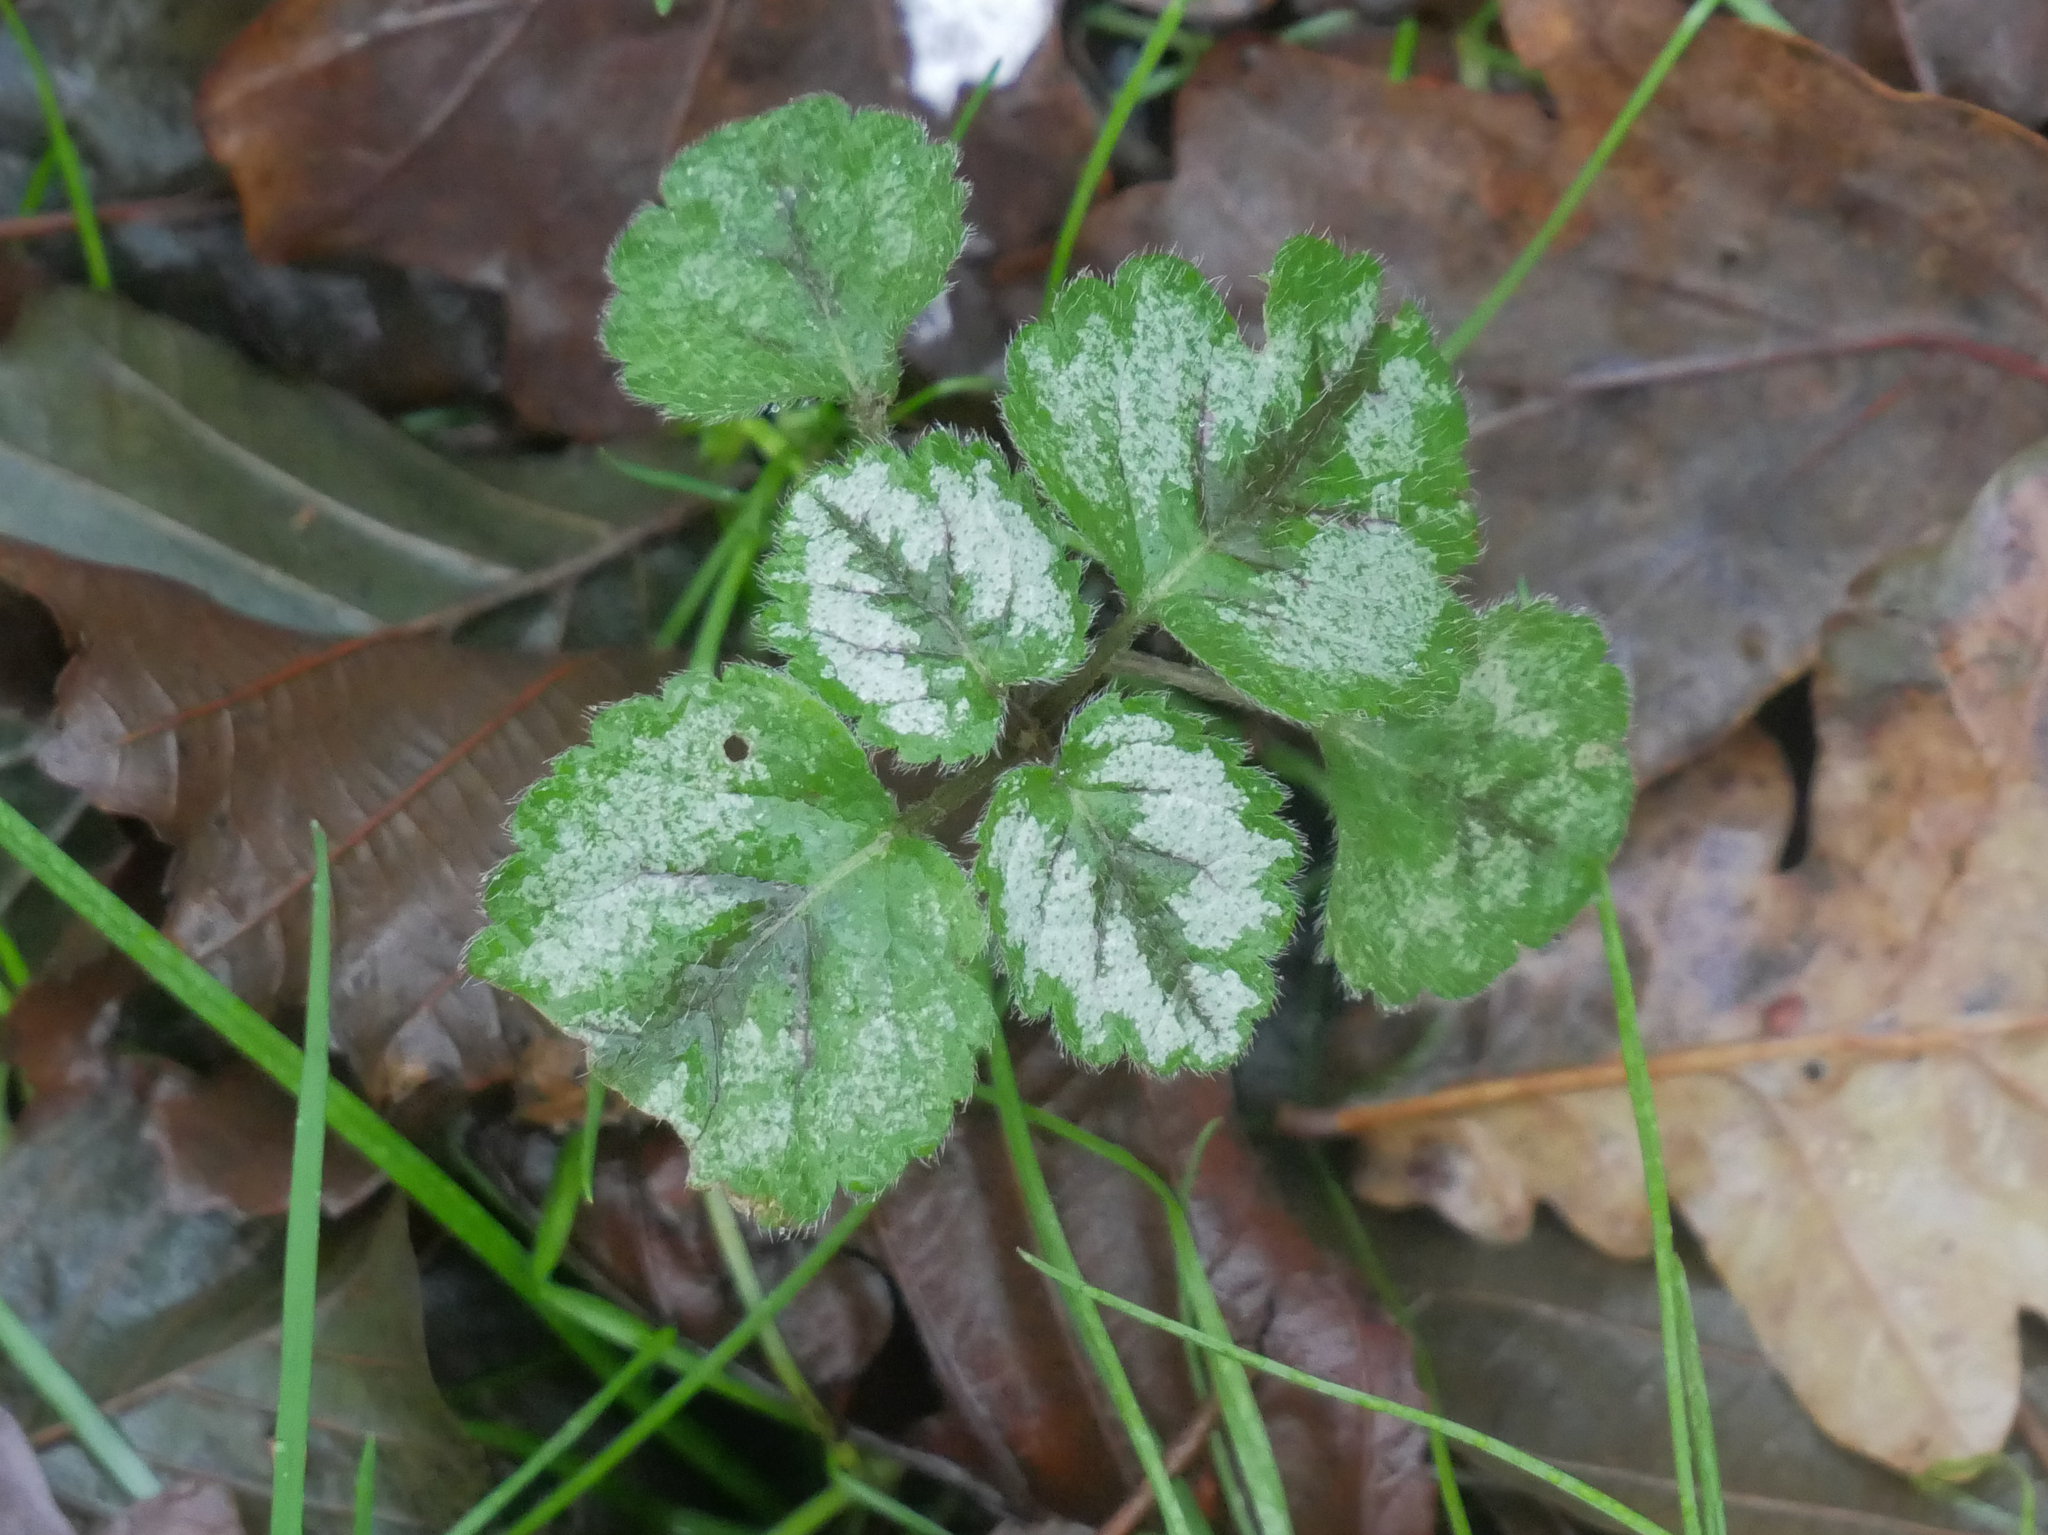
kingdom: Plantae
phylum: Tracheophyta
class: Magnoliopsida
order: Lamiales
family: Lamiaceae
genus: Lamium
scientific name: Lamium galeobdolon
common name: Yellow archangel
